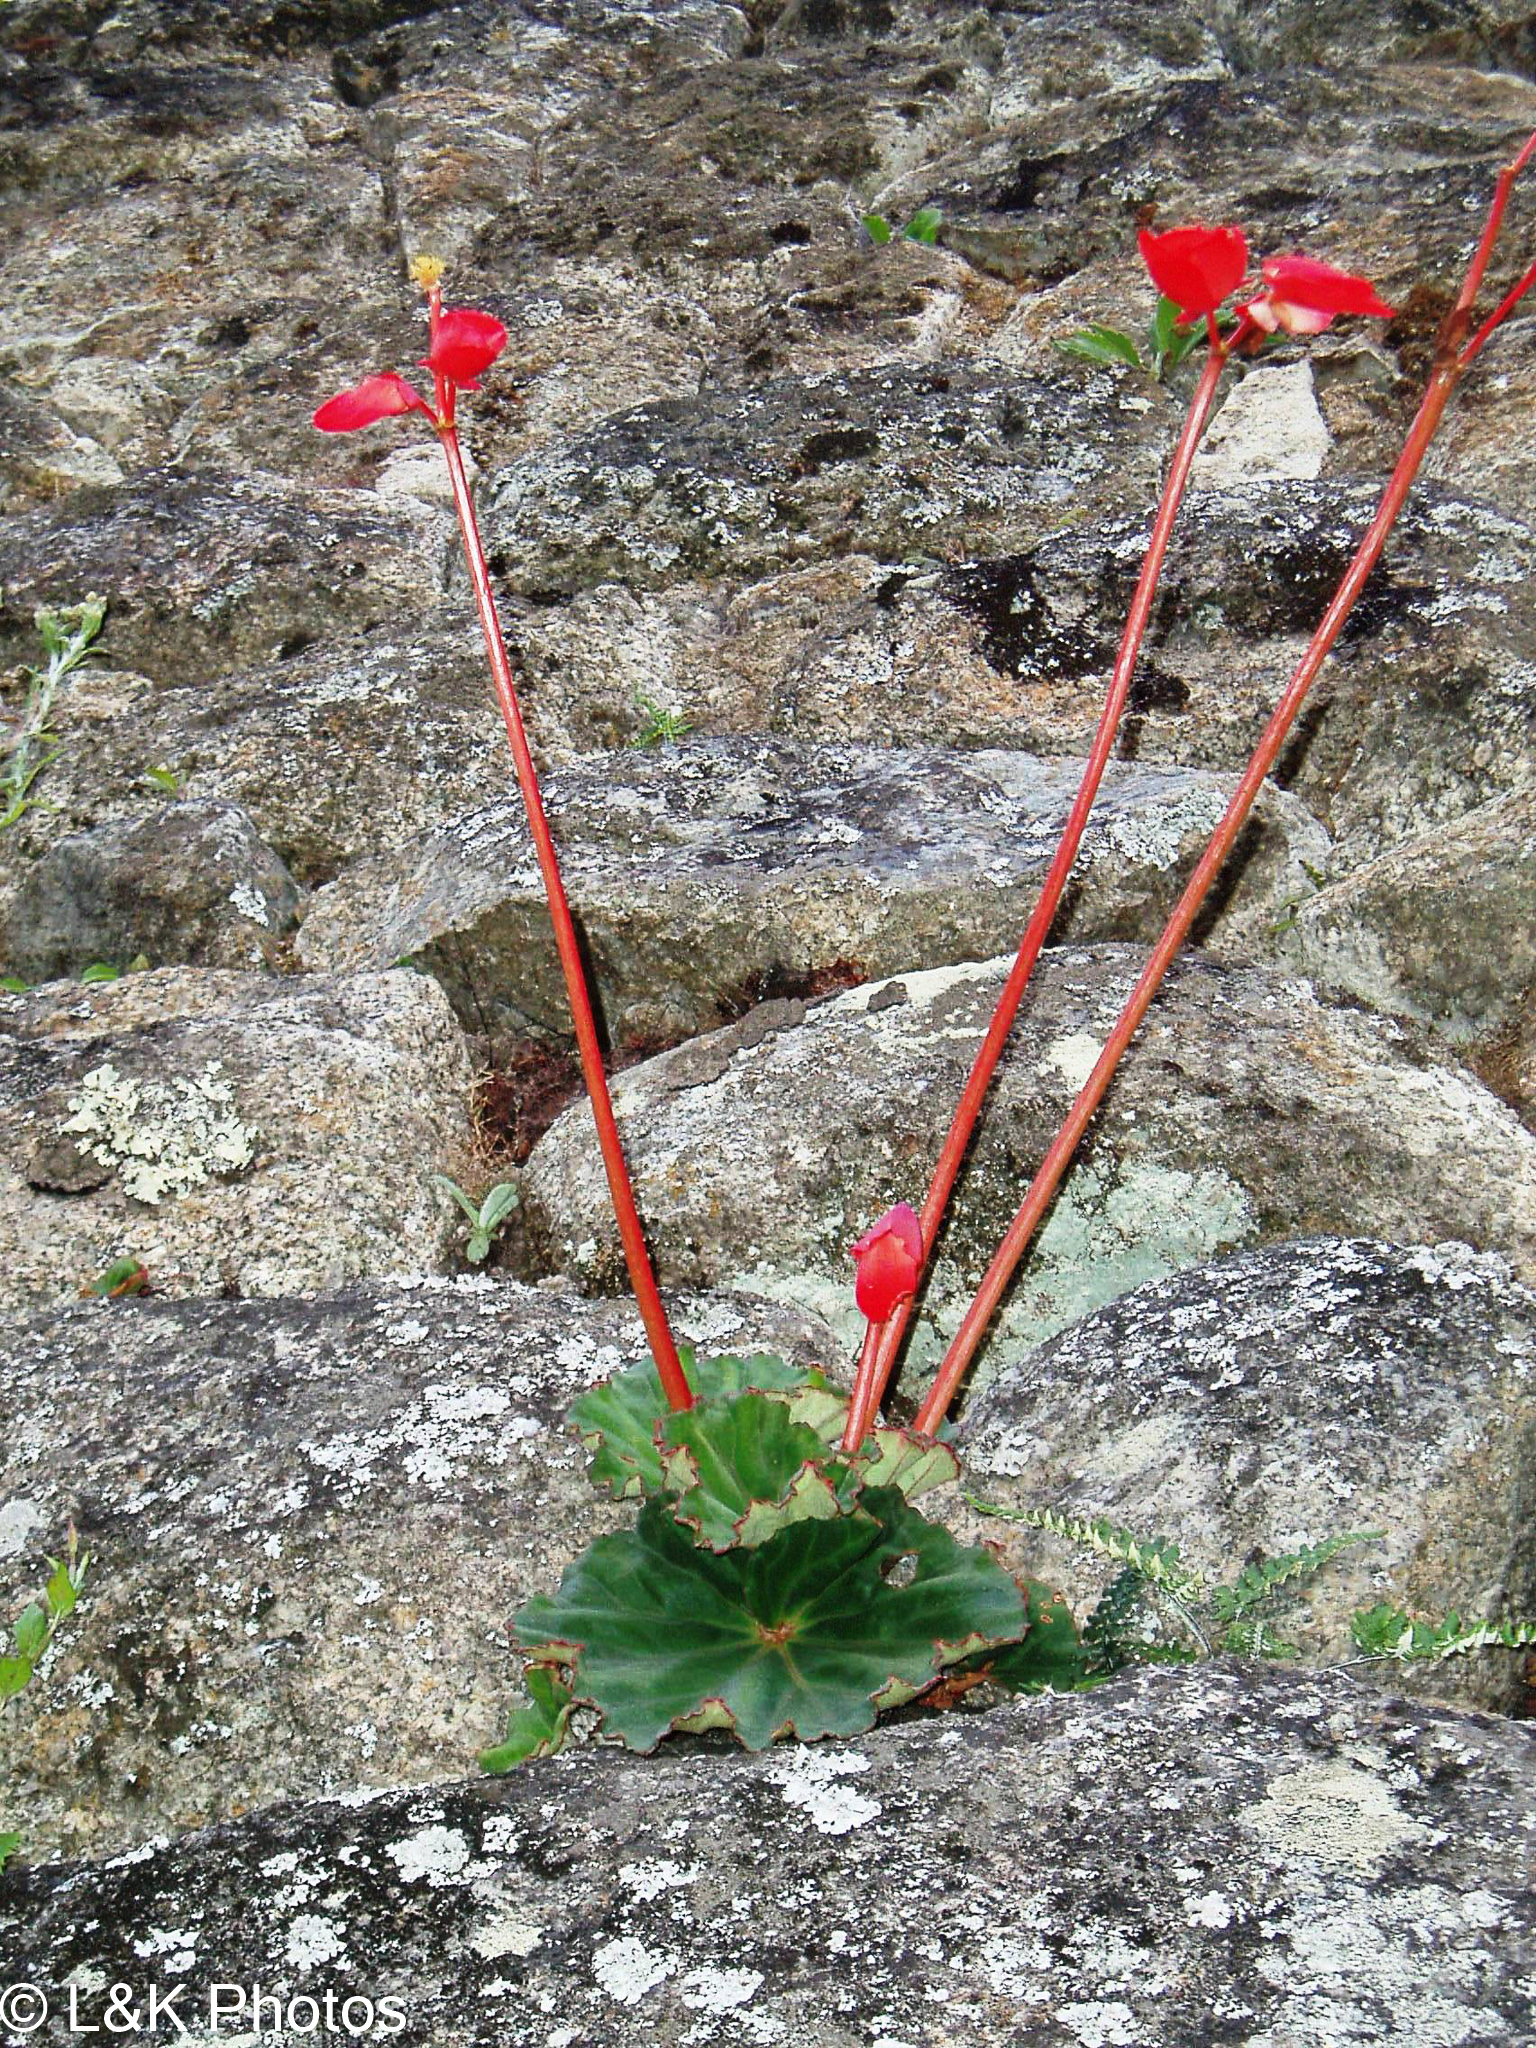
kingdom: Plantae
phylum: Tracheophyta
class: Magnoliopsida
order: Cucurbitales
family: Begoniaceae
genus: Begonia
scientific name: Begonia veitchii
